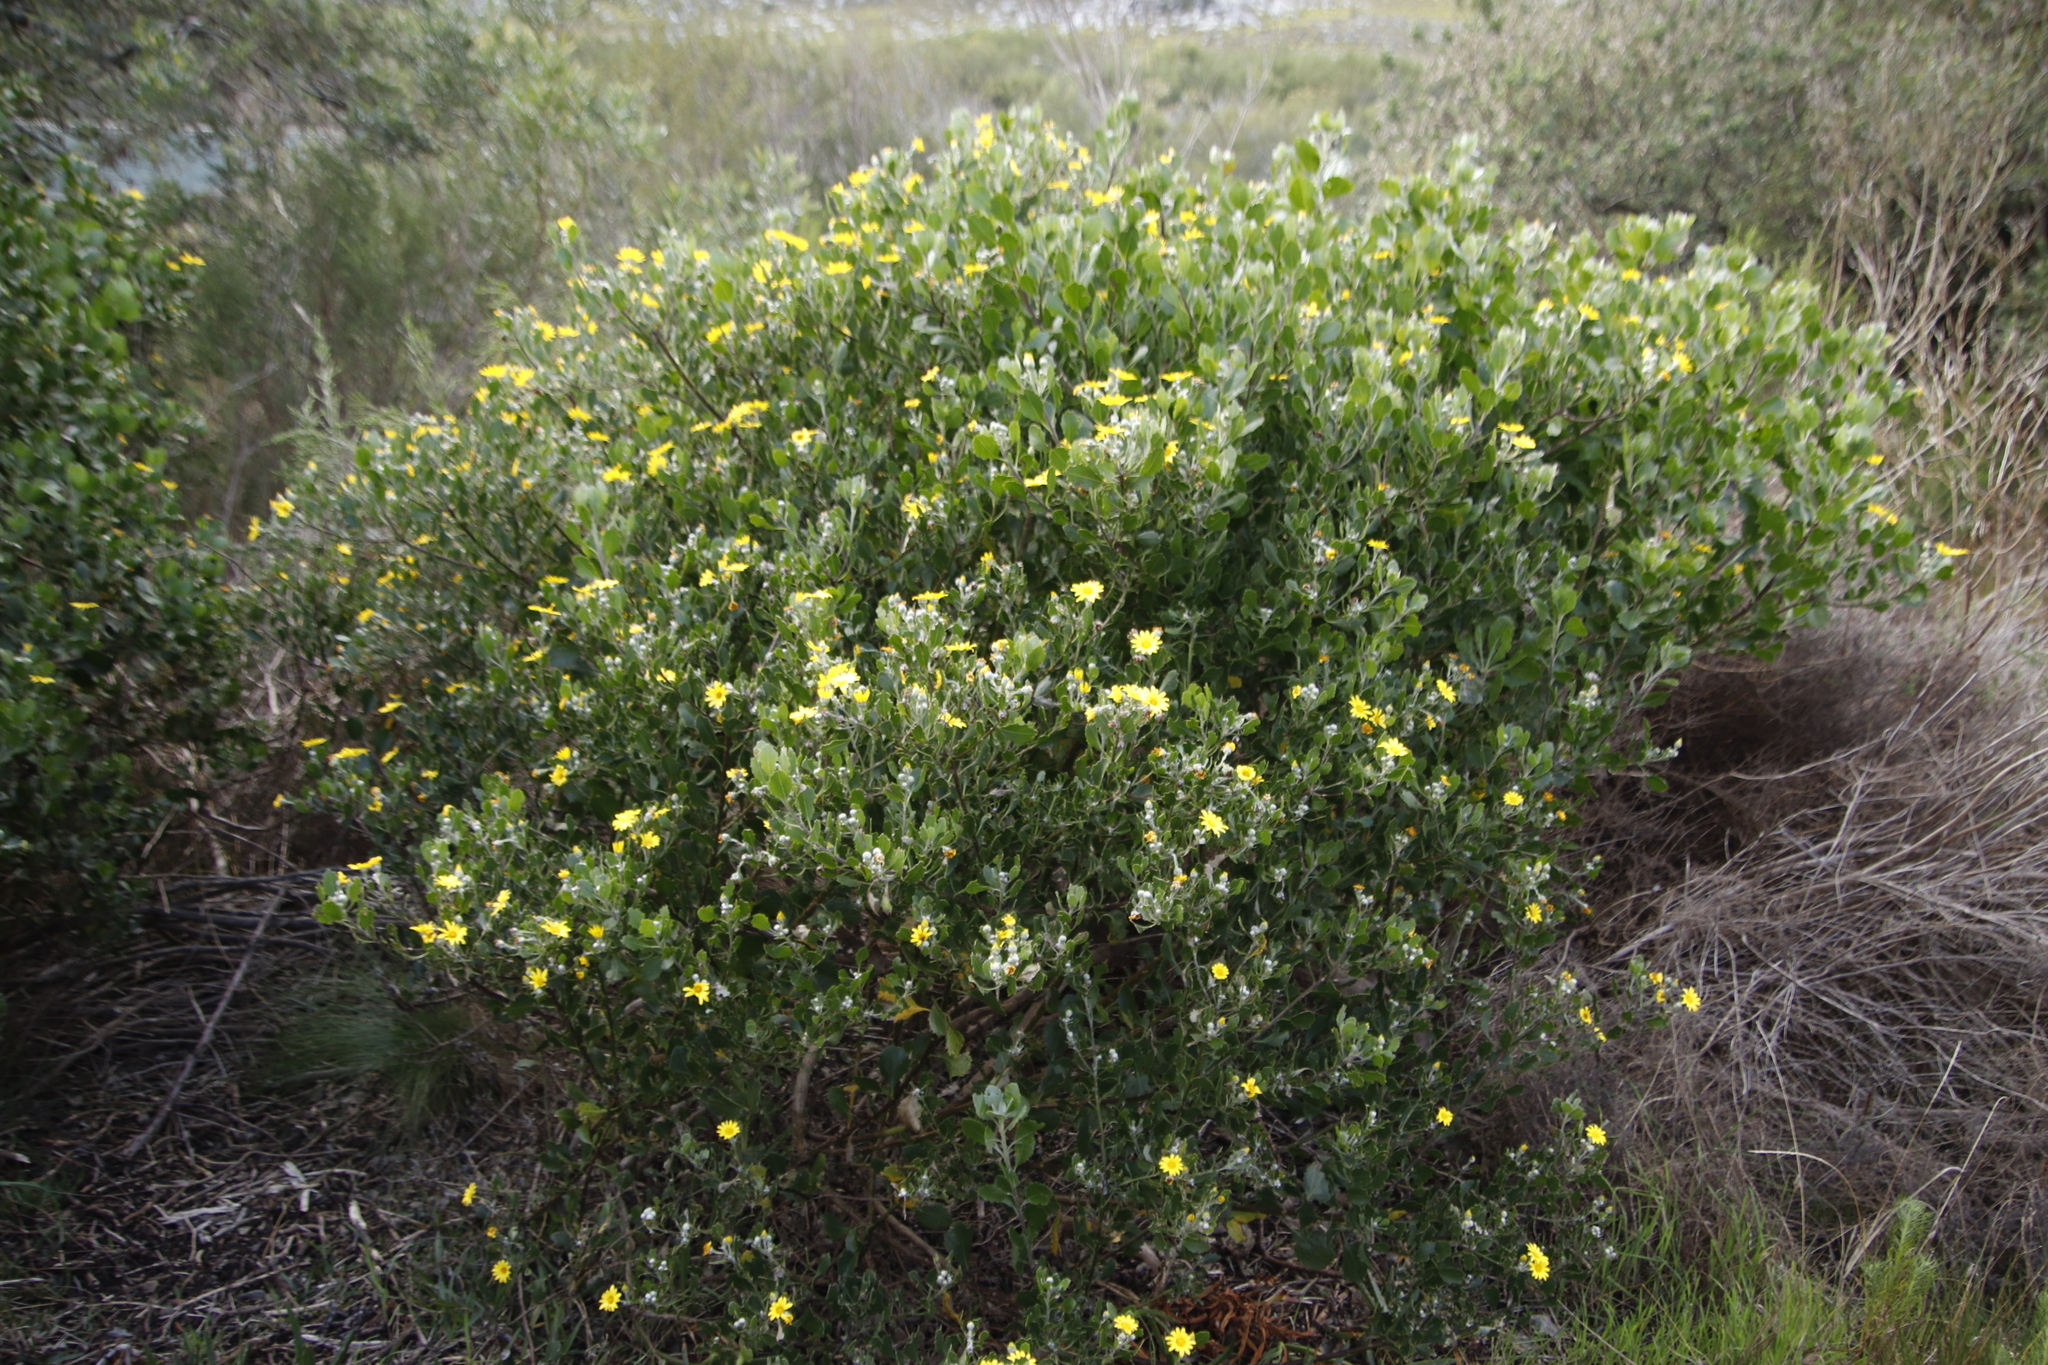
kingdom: Plantae
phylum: Tracheophyta
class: Magnoliopsida
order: Asterales
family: Asteraceae
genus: Osteospermum
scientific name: Osteospermum moniliferum
